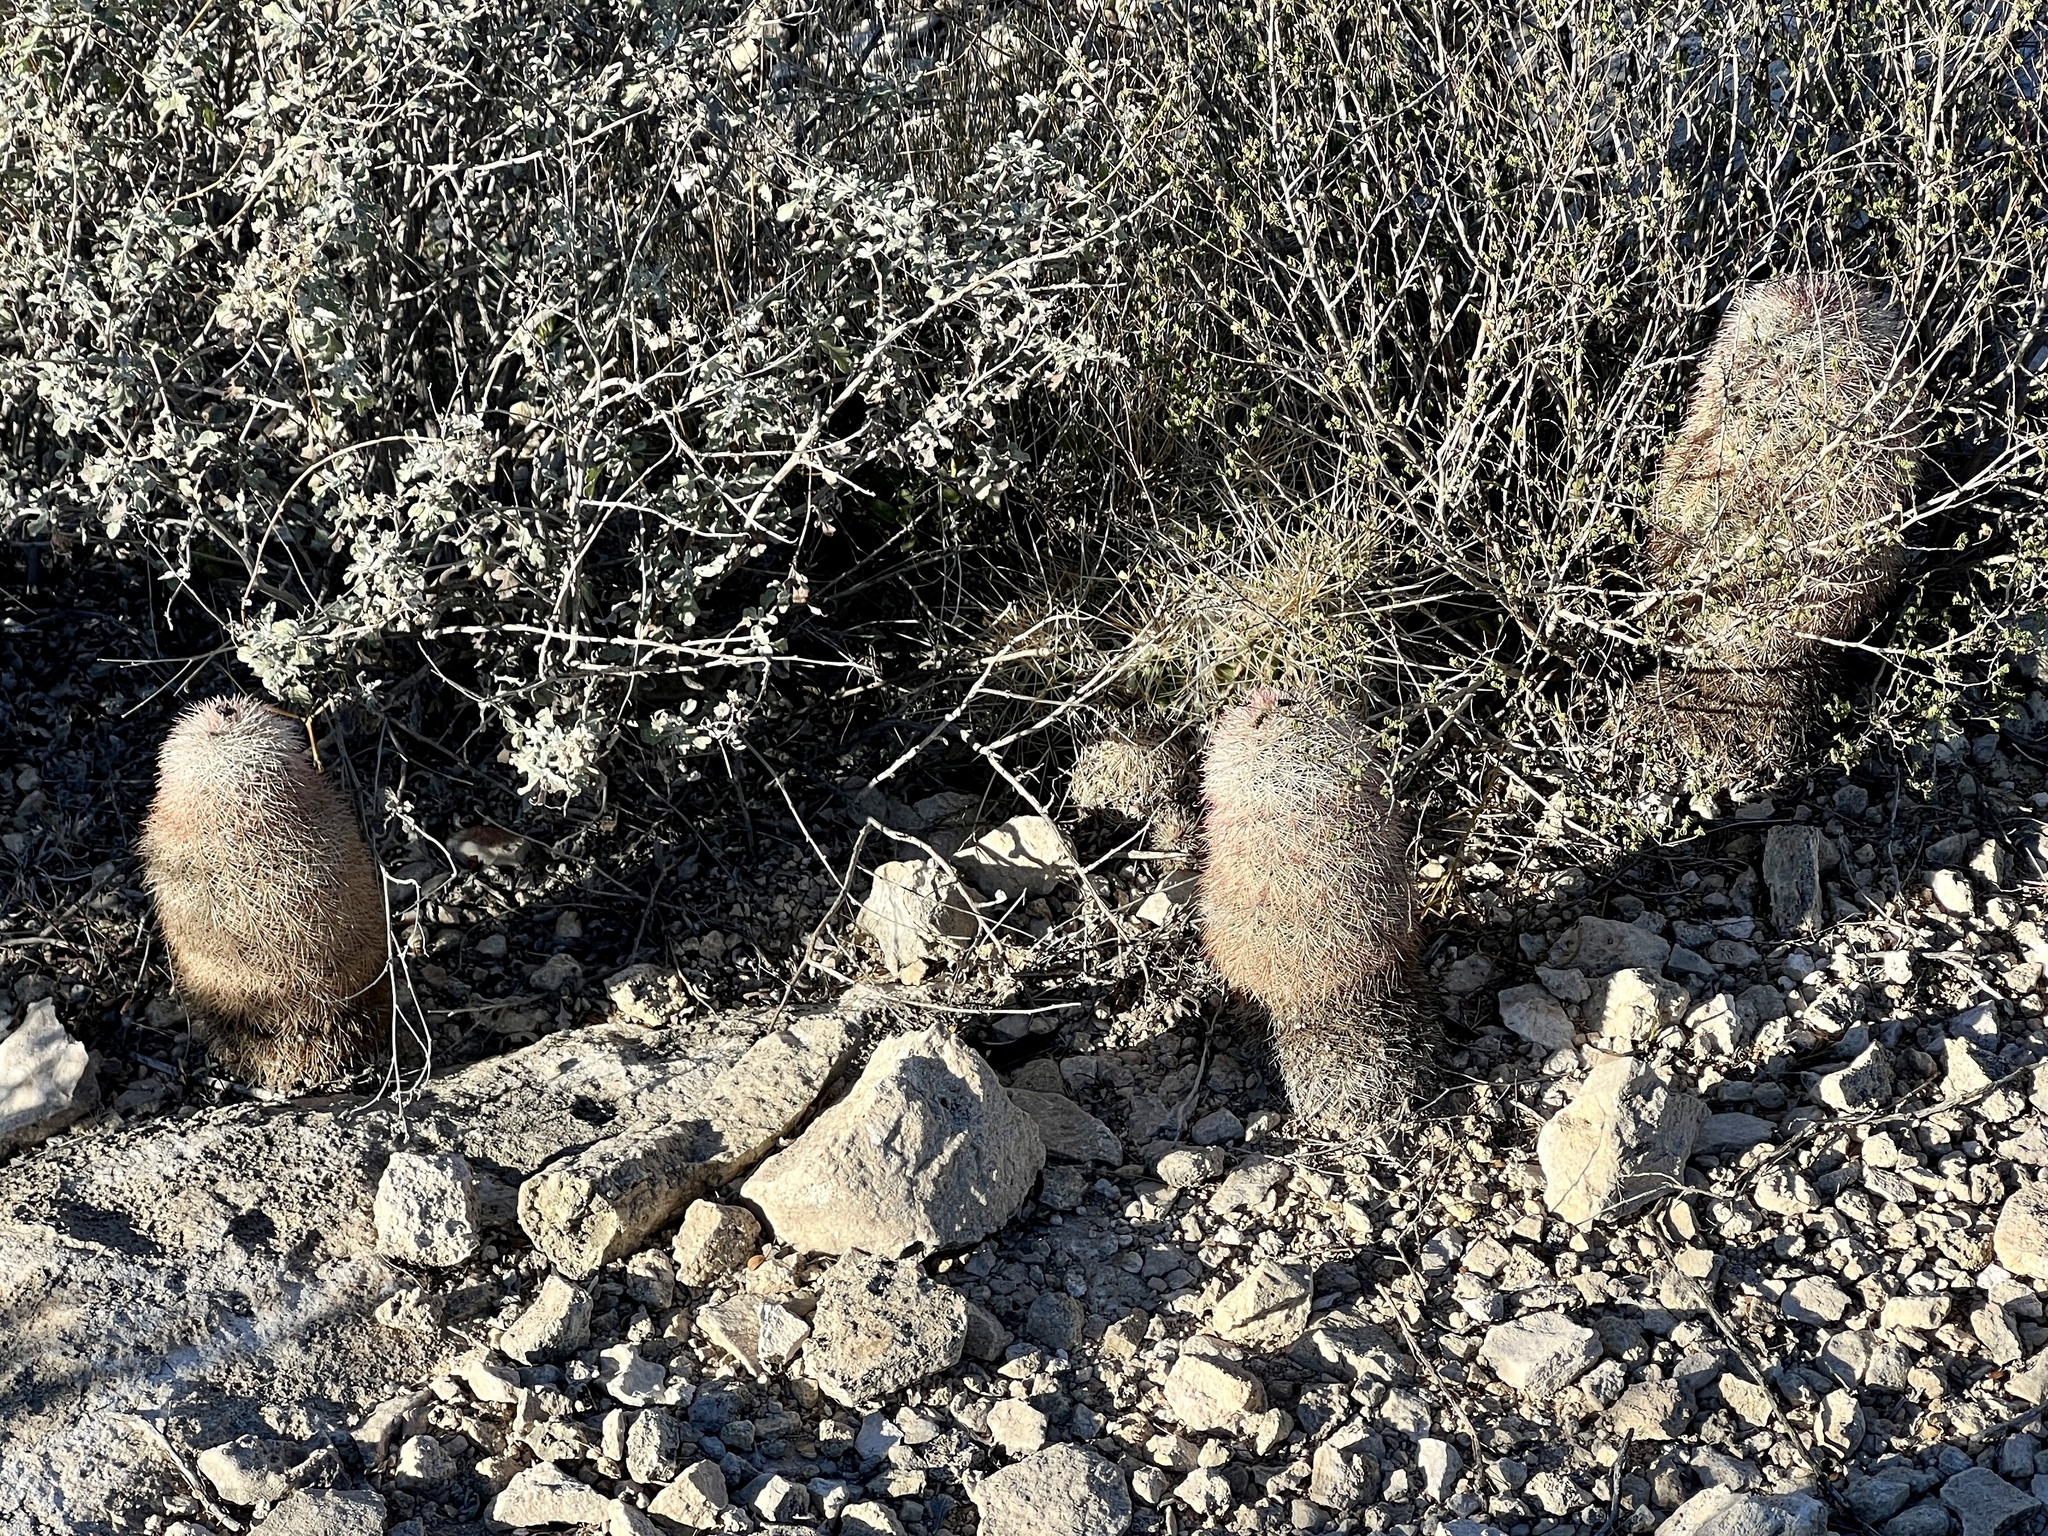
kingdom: Plantae
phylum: Tracheophyta
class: Magnoliopsida
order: Caryophyllales
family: Cactaceae
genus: Echinocereus
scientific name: Echinocereus dasyacanthus
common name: Spiny hedgehog cactus
